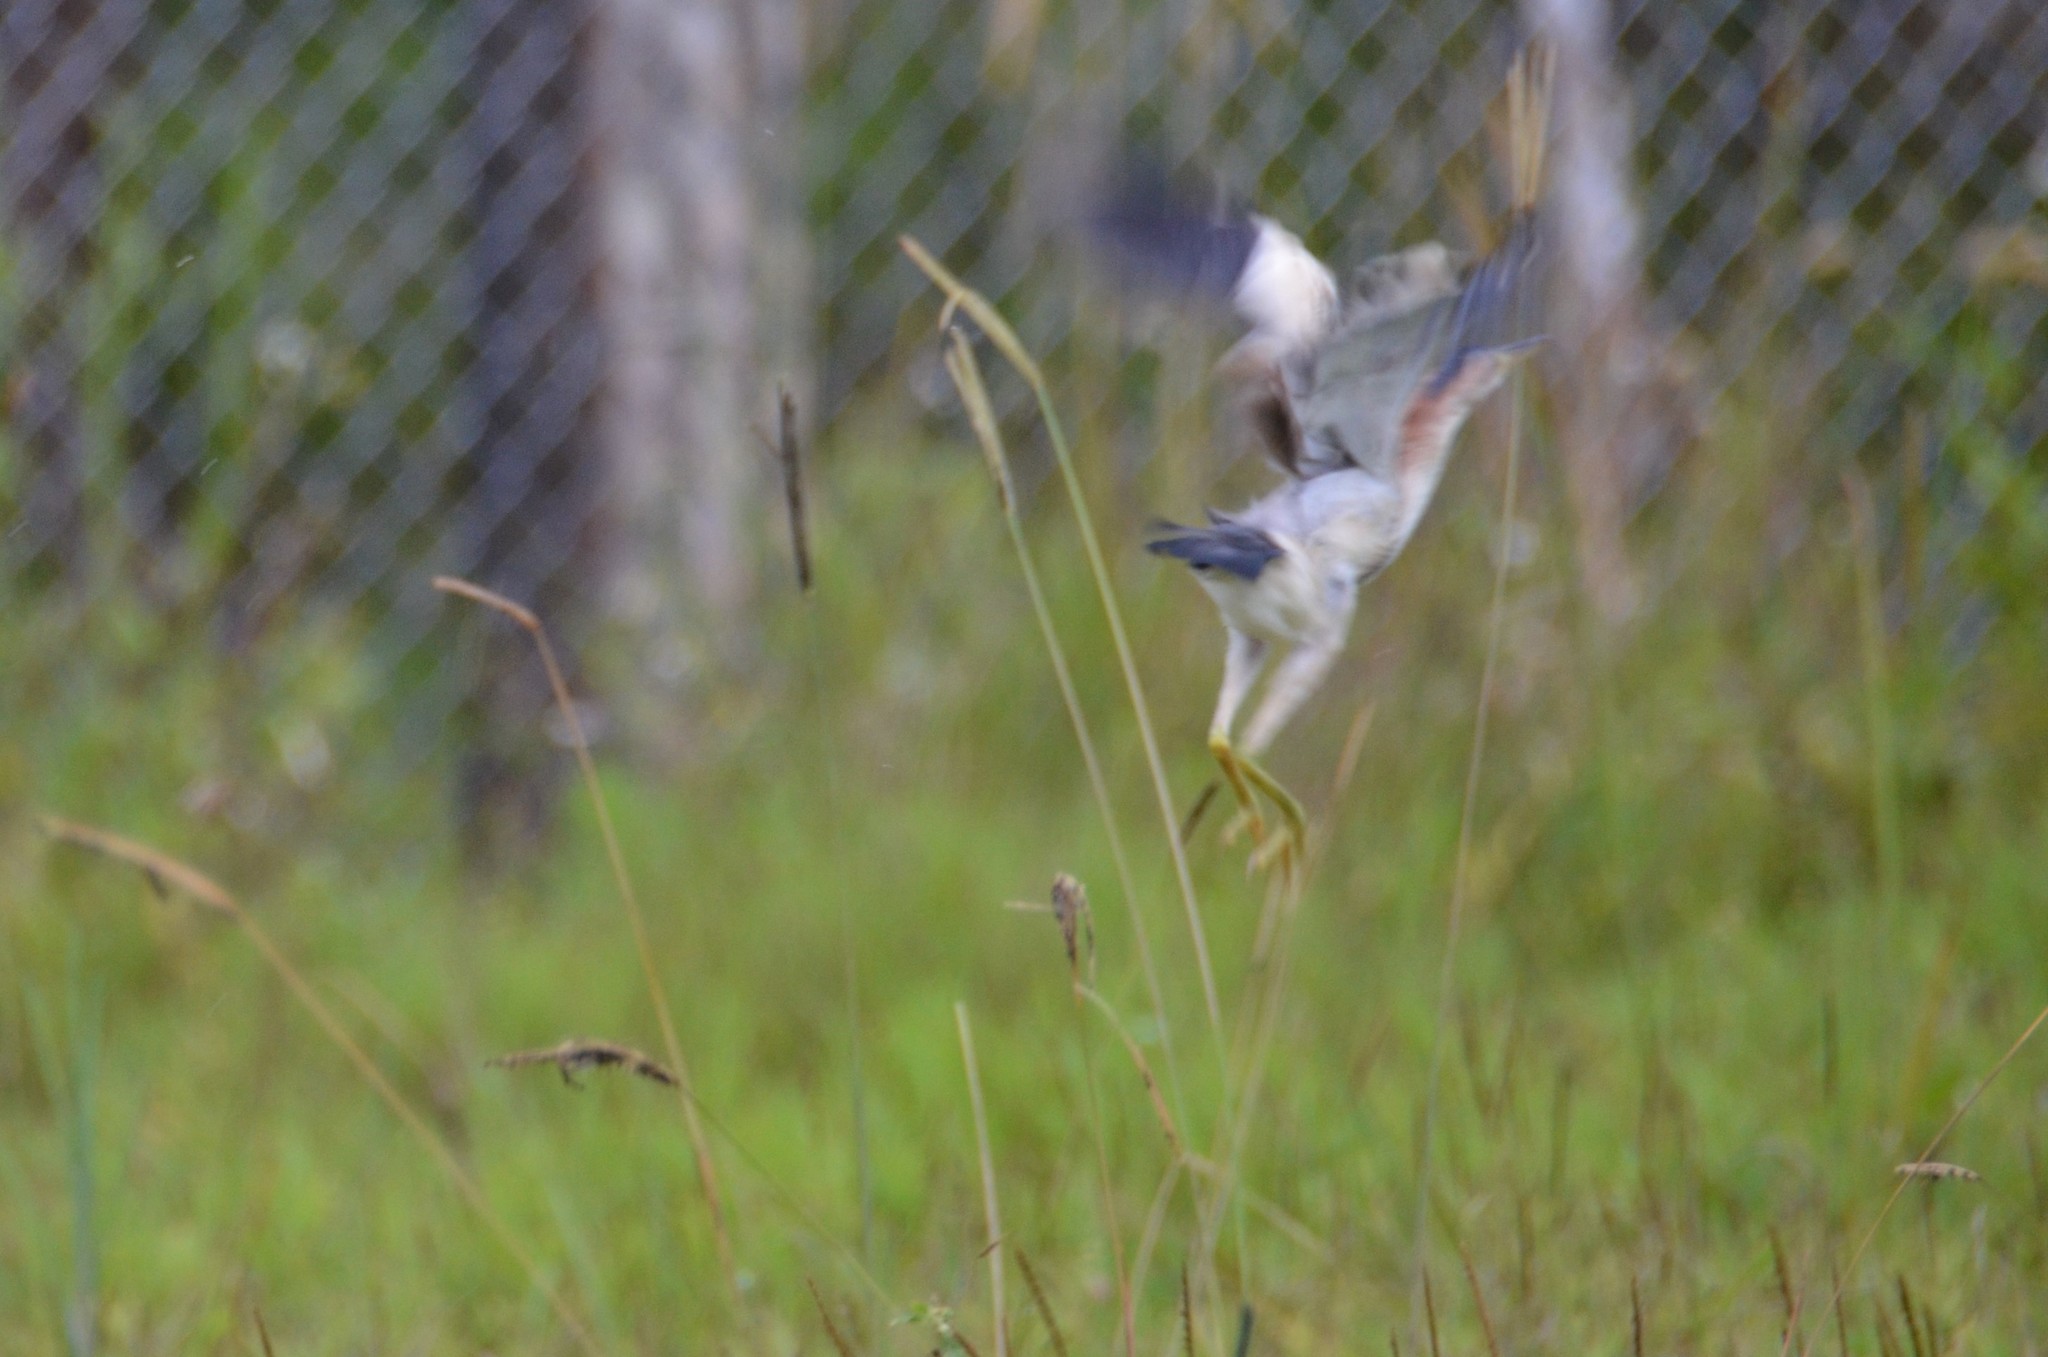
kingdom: Animalia
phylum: Chordata
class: Aves
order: Pelecaniformes
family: Ardeidae
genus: Ixobrychus
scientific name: Ixobrychus sinensis
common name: Yellow bittern
